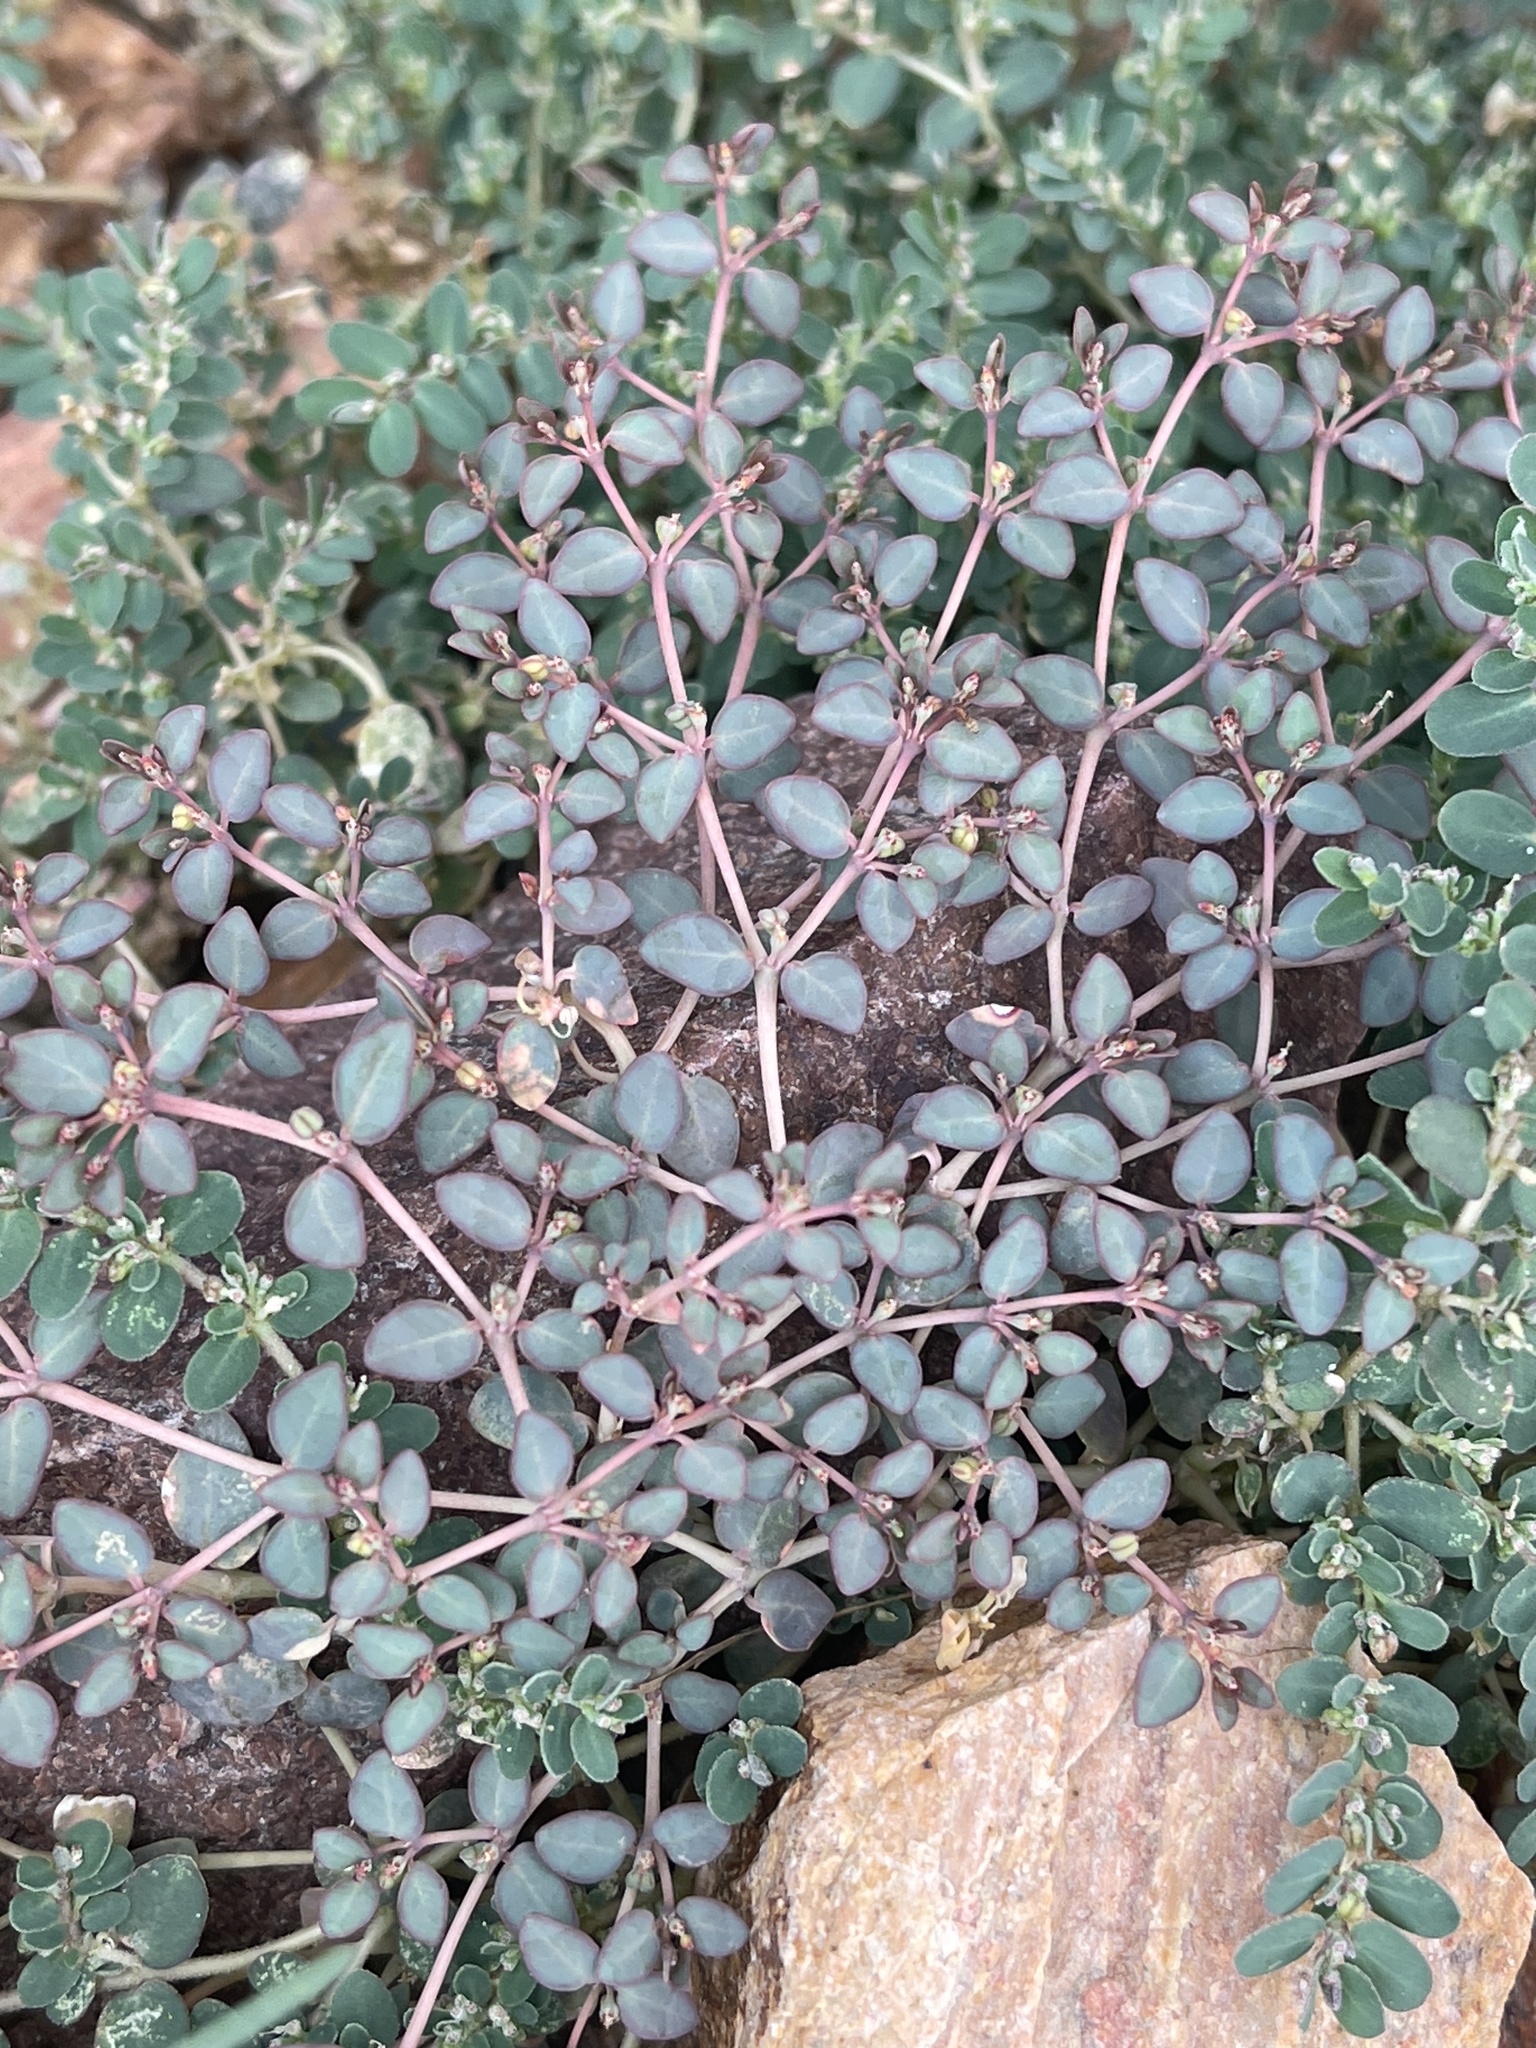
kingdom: Plantae
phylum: Tracheophyta
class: Magnoliopsida
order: Malpighiales
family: Euphorbiaceae
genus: Euphorbia
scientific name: Euphorbia micromera
